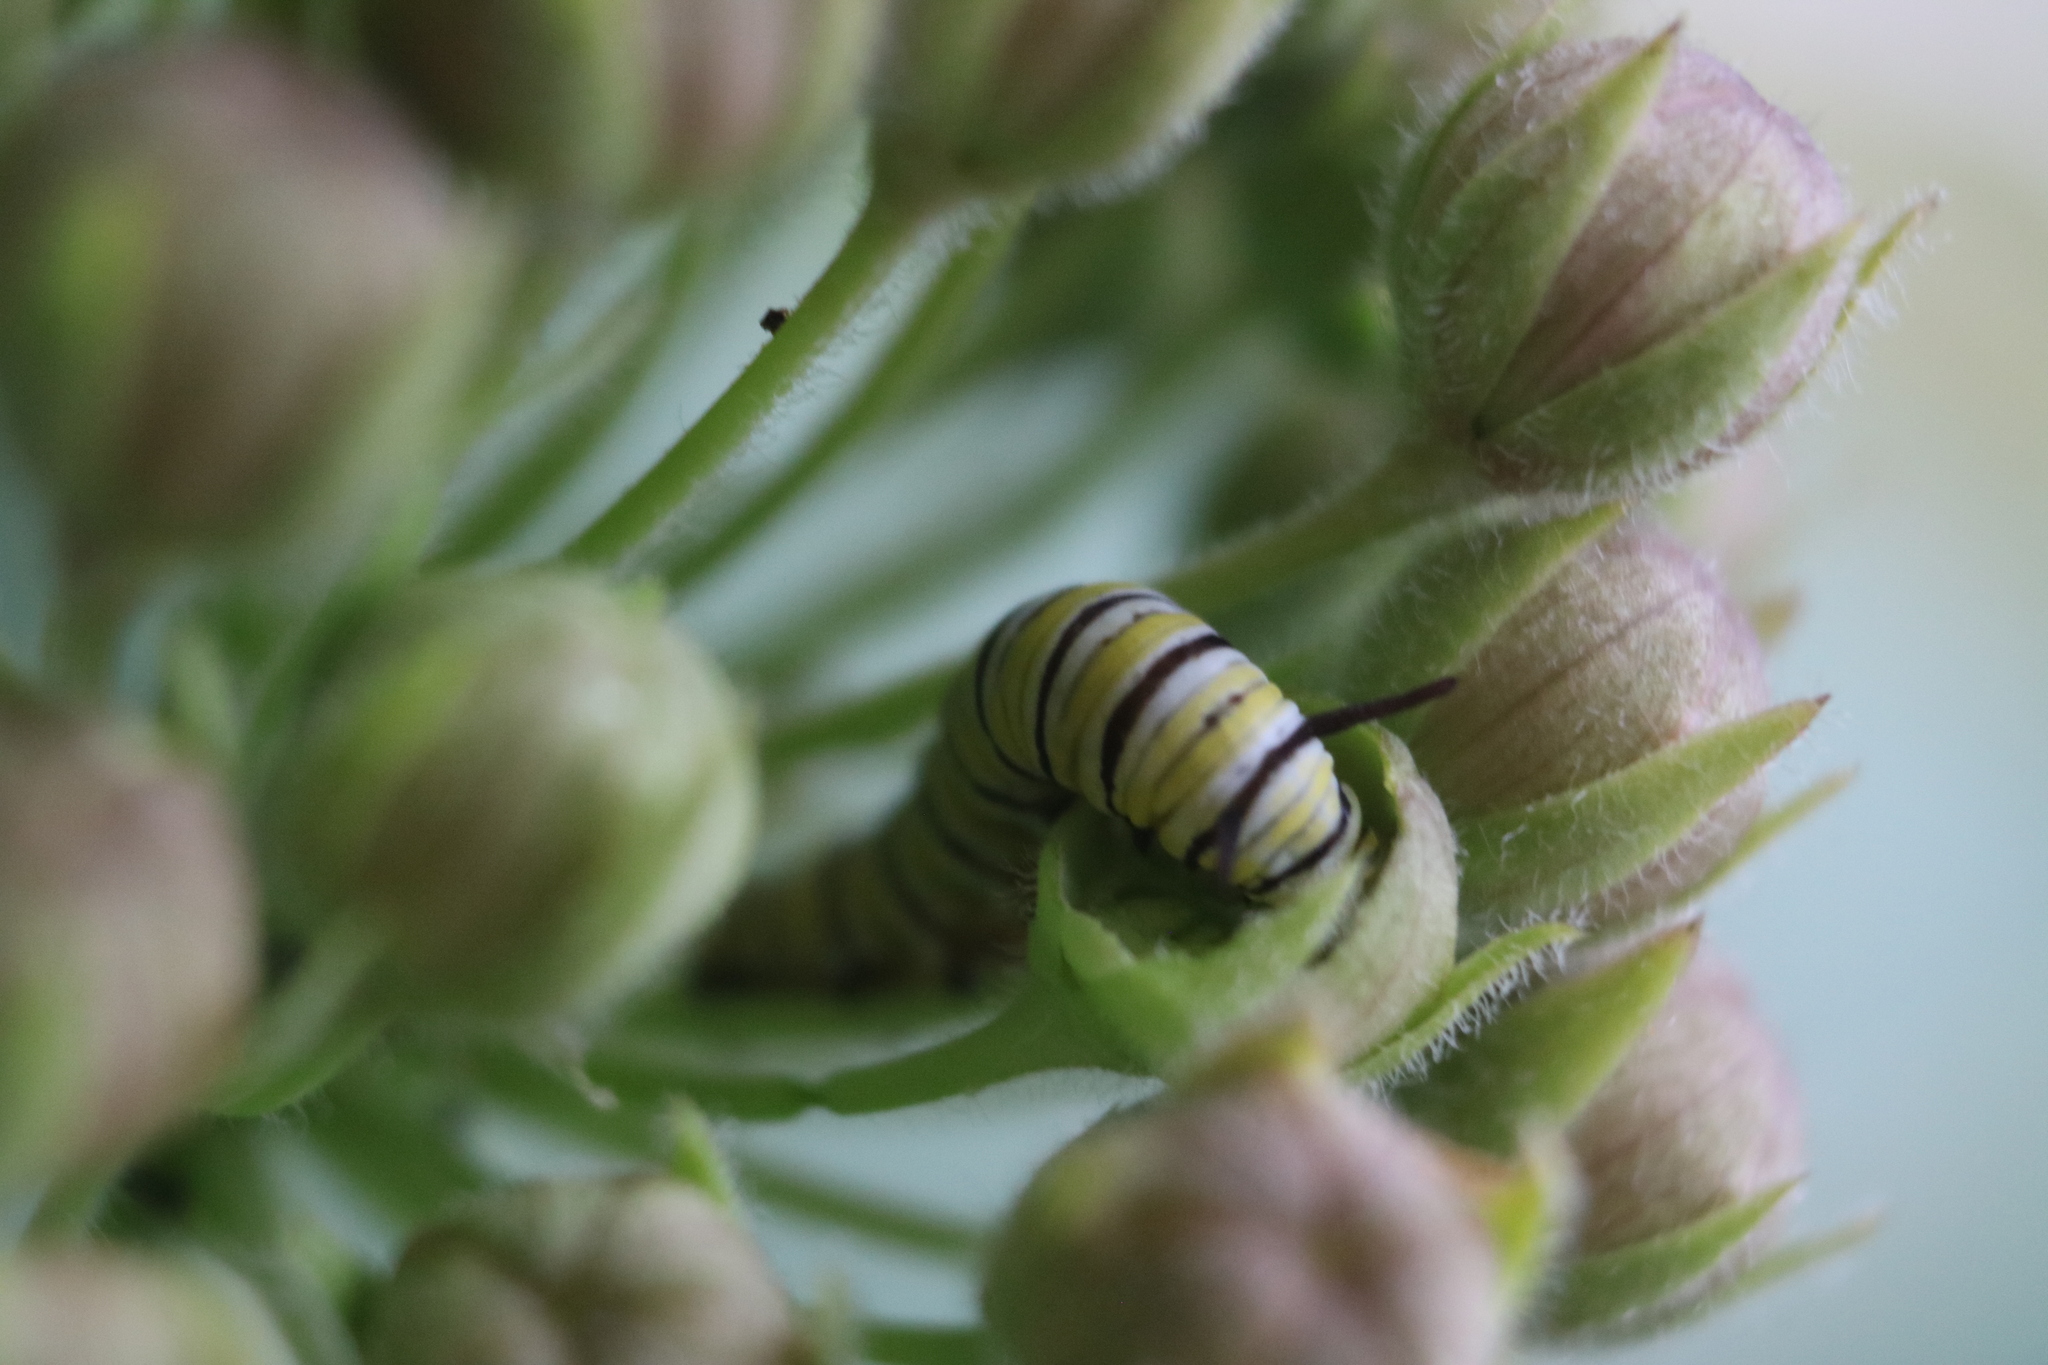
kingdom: Animalia
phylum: Arthropoda
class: Insecta
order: Lepidoptera
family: Nymphalidae
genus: Danaus
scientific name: Danaus plexippus
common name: Monarch
